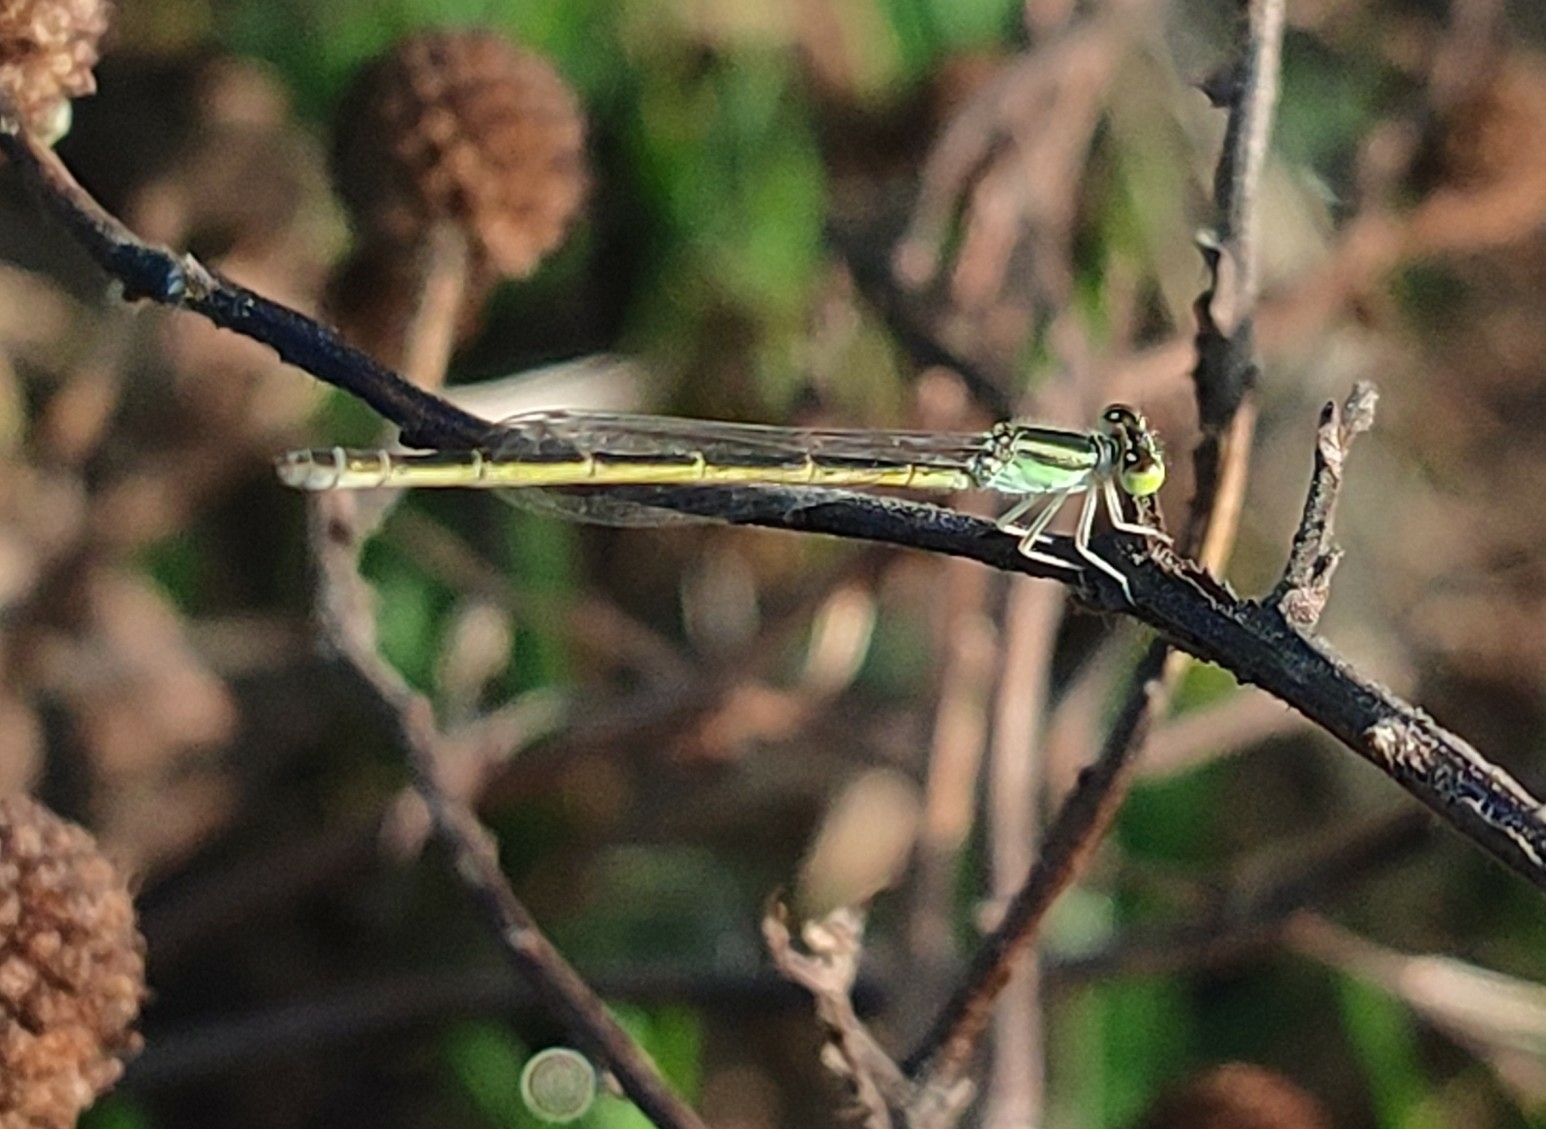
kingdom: Animalia
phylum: Arthropoda
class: Insecta
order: Odonata
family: Coenagrionidae
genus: Ischnura
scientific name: Ischnura rubilio
